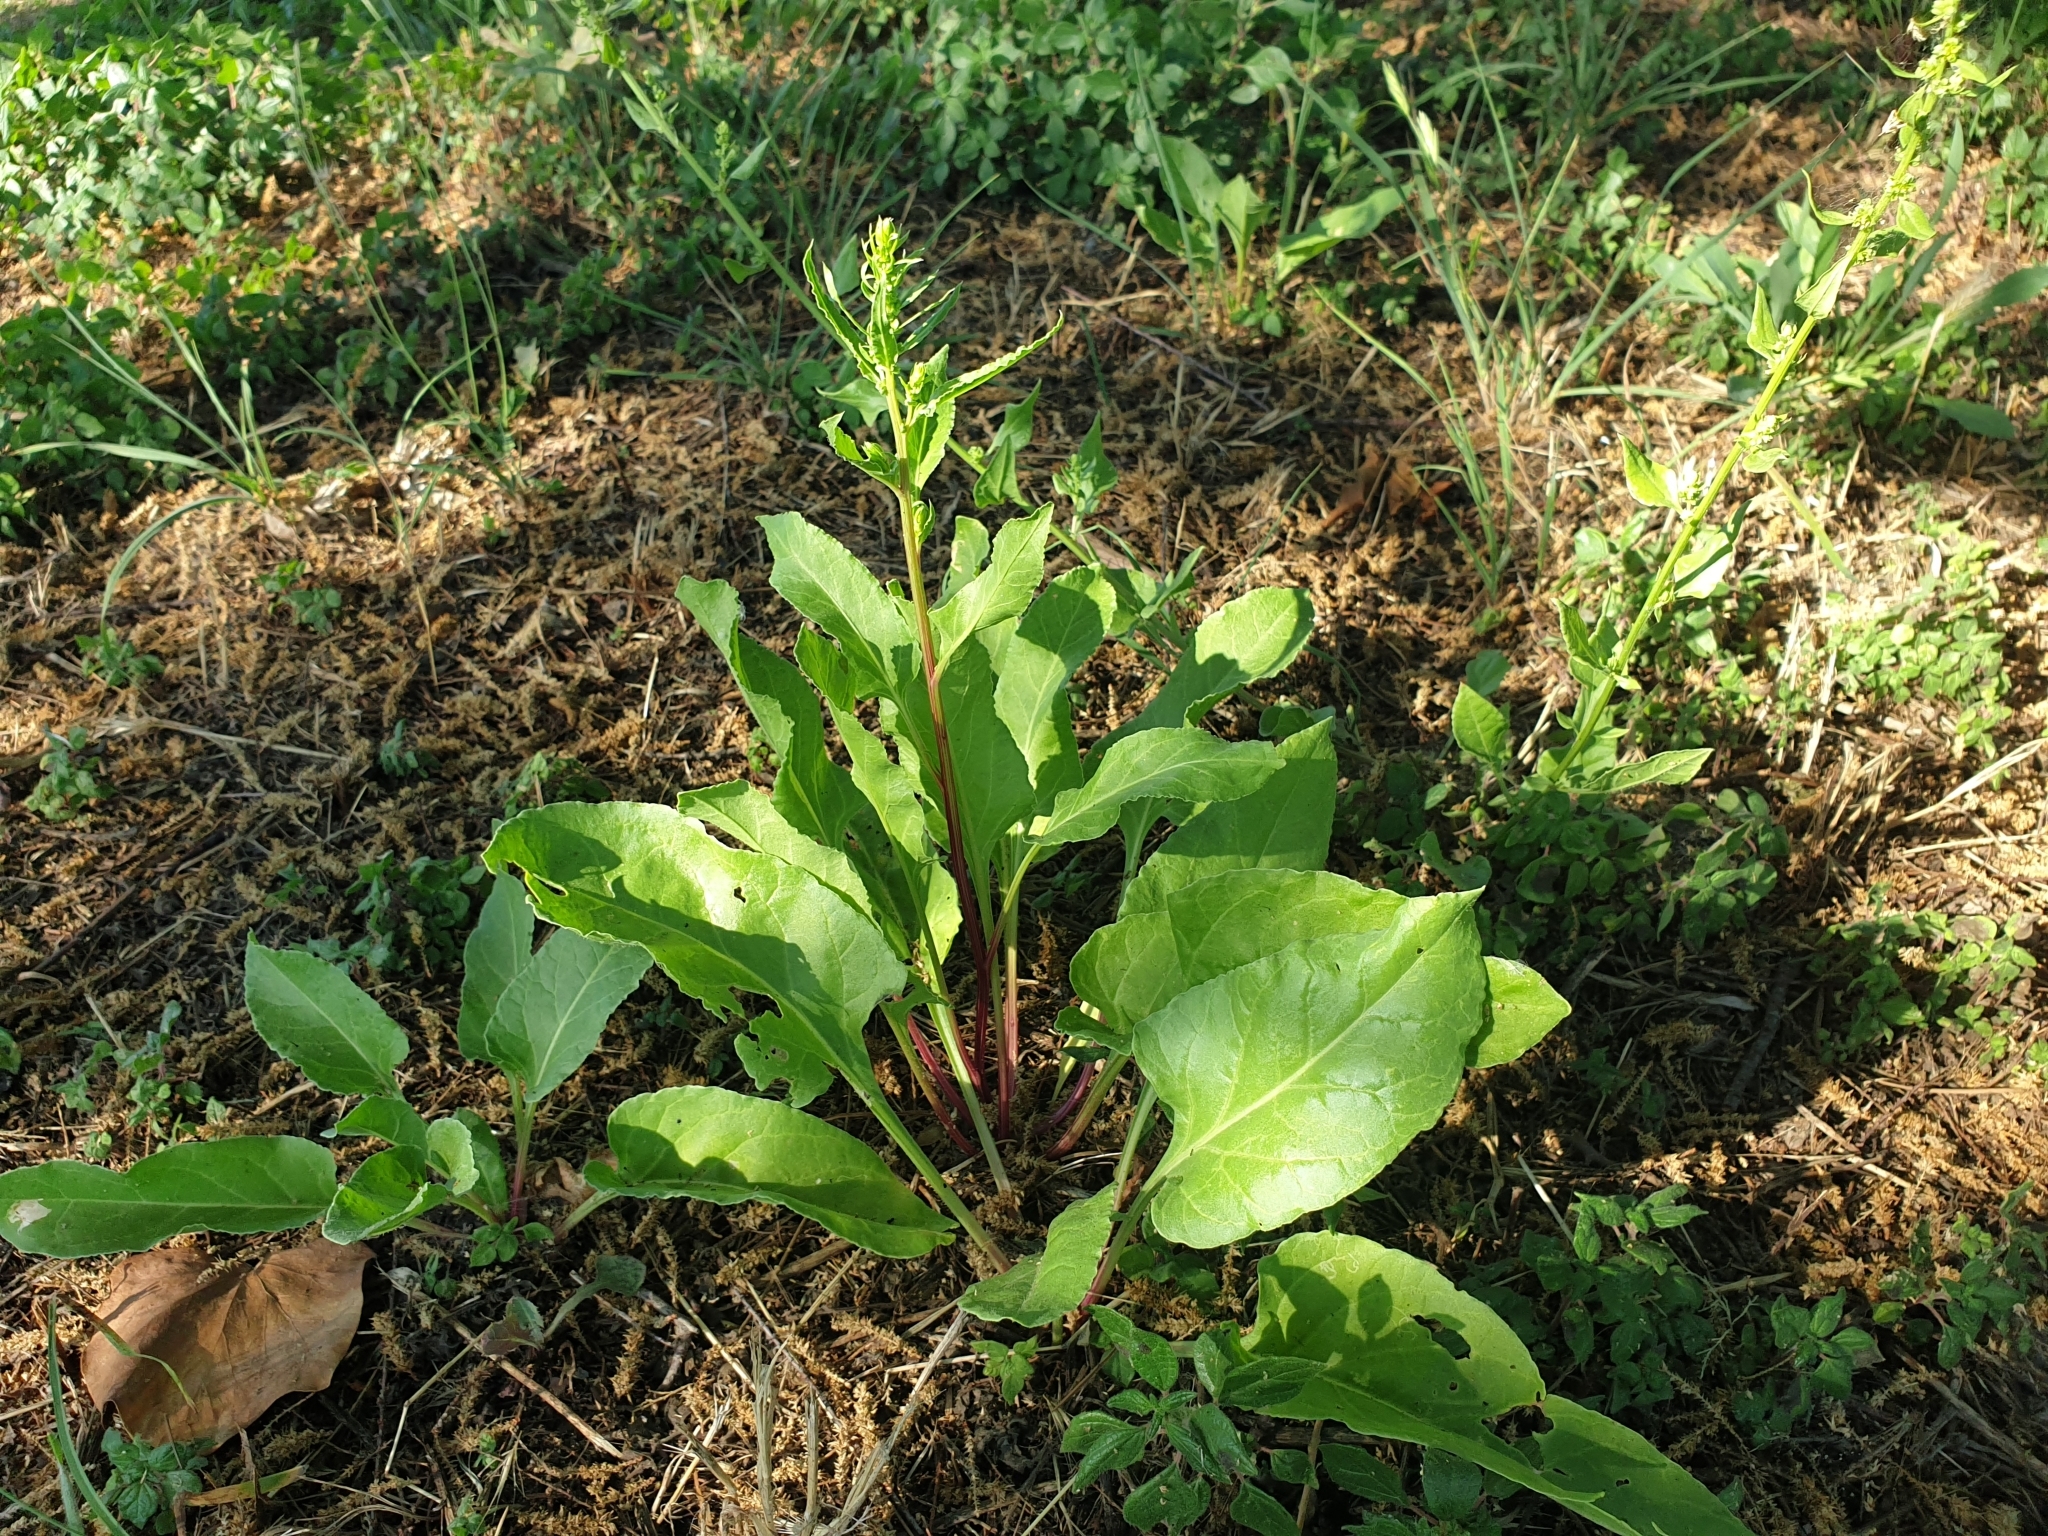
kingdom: Plantae
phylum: Tracheophyta
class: Magnoliopsida
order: Caryophyllales
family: Amaranthaceae
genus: Beta
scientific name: Beta vulgaris
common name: Beet
